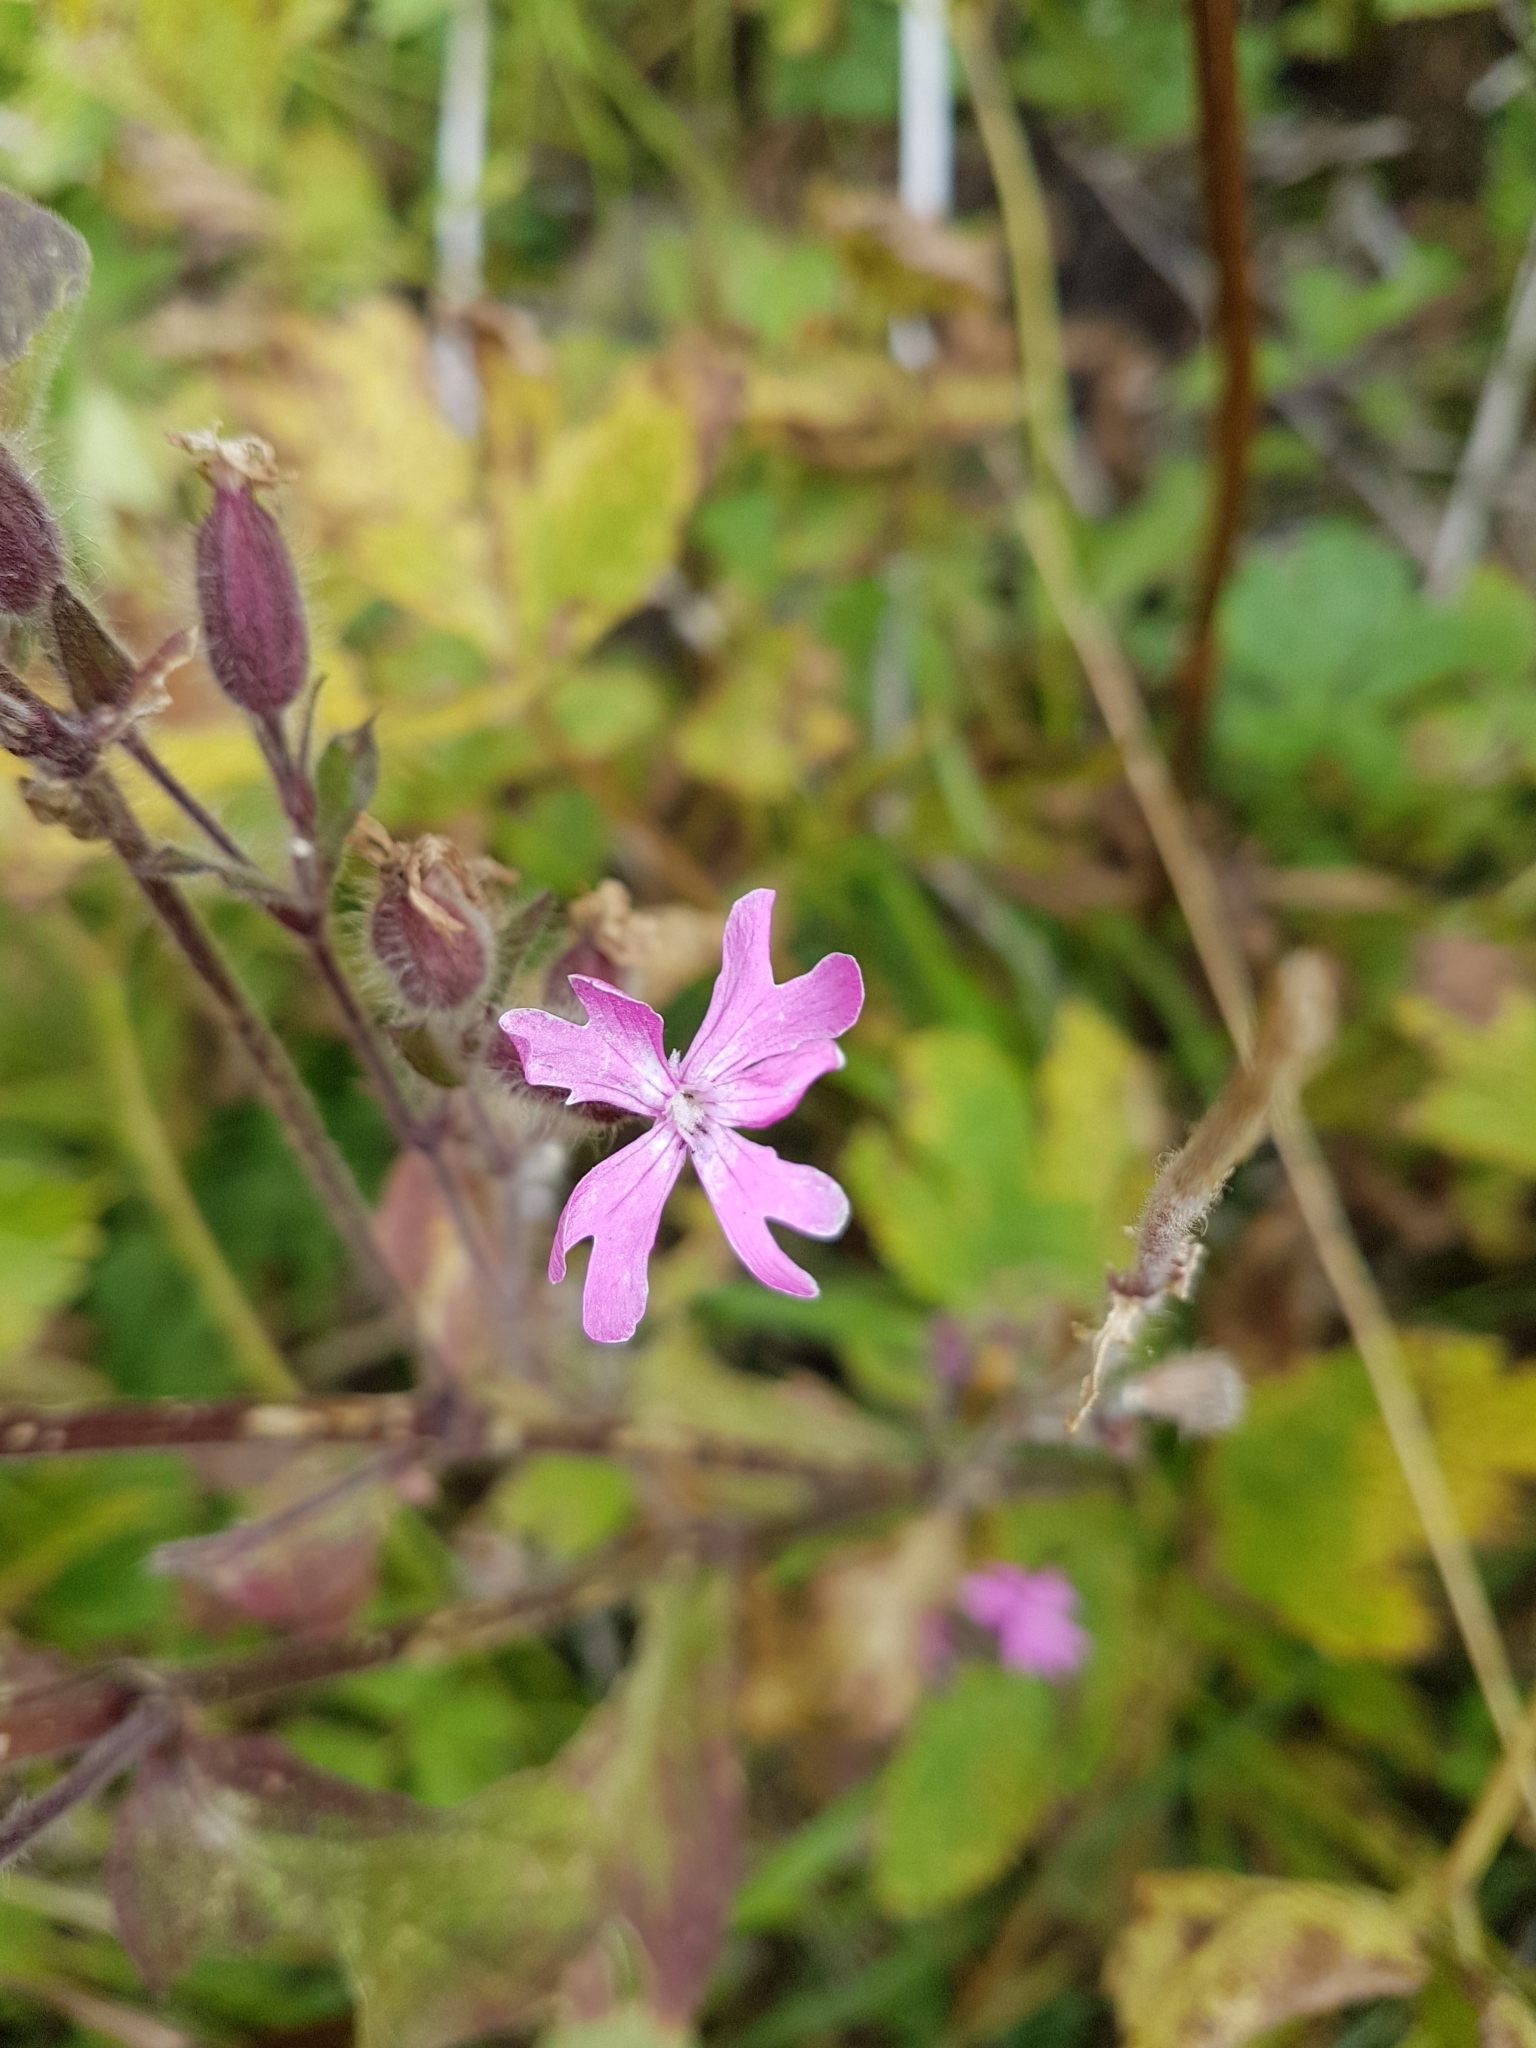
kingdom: Plantae
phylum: Tracheophyta
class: Magnoliopsida
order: Caryophyllales
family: Caryophyllaceae
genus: Silene
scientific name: Silene dioica
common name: Red campion
